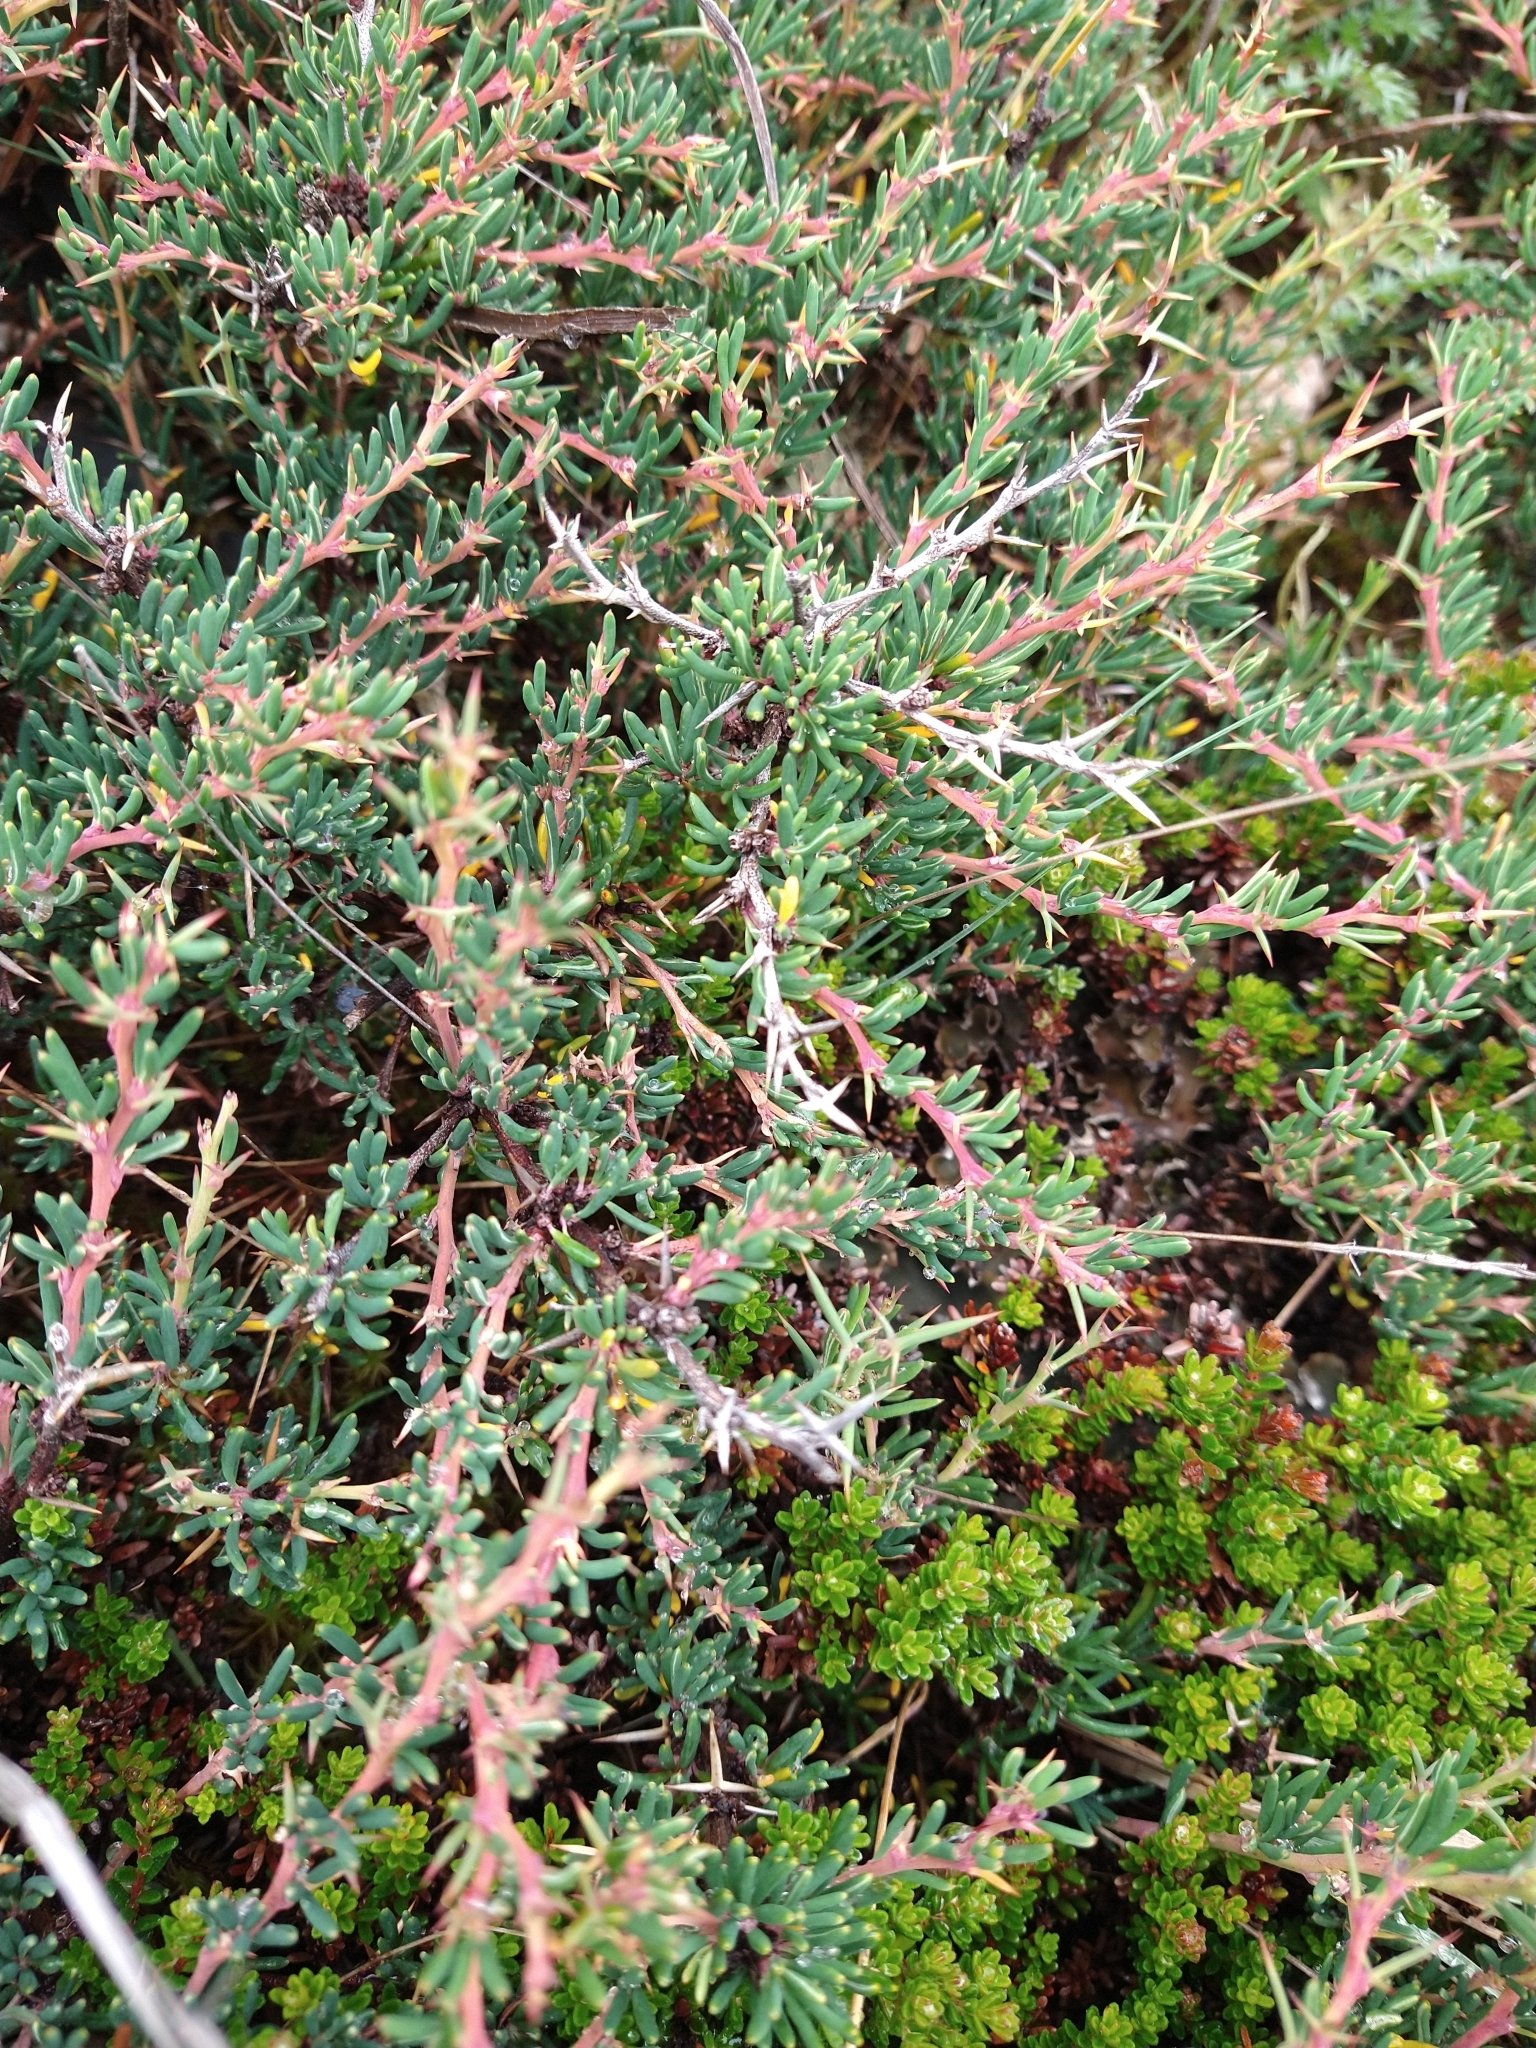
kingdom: Plantae
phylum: Tracheophyta
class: Magnoliopsida
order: Ranunculales
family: Berberidaceae
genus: Berberis
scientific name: Berberis empetrifolia
